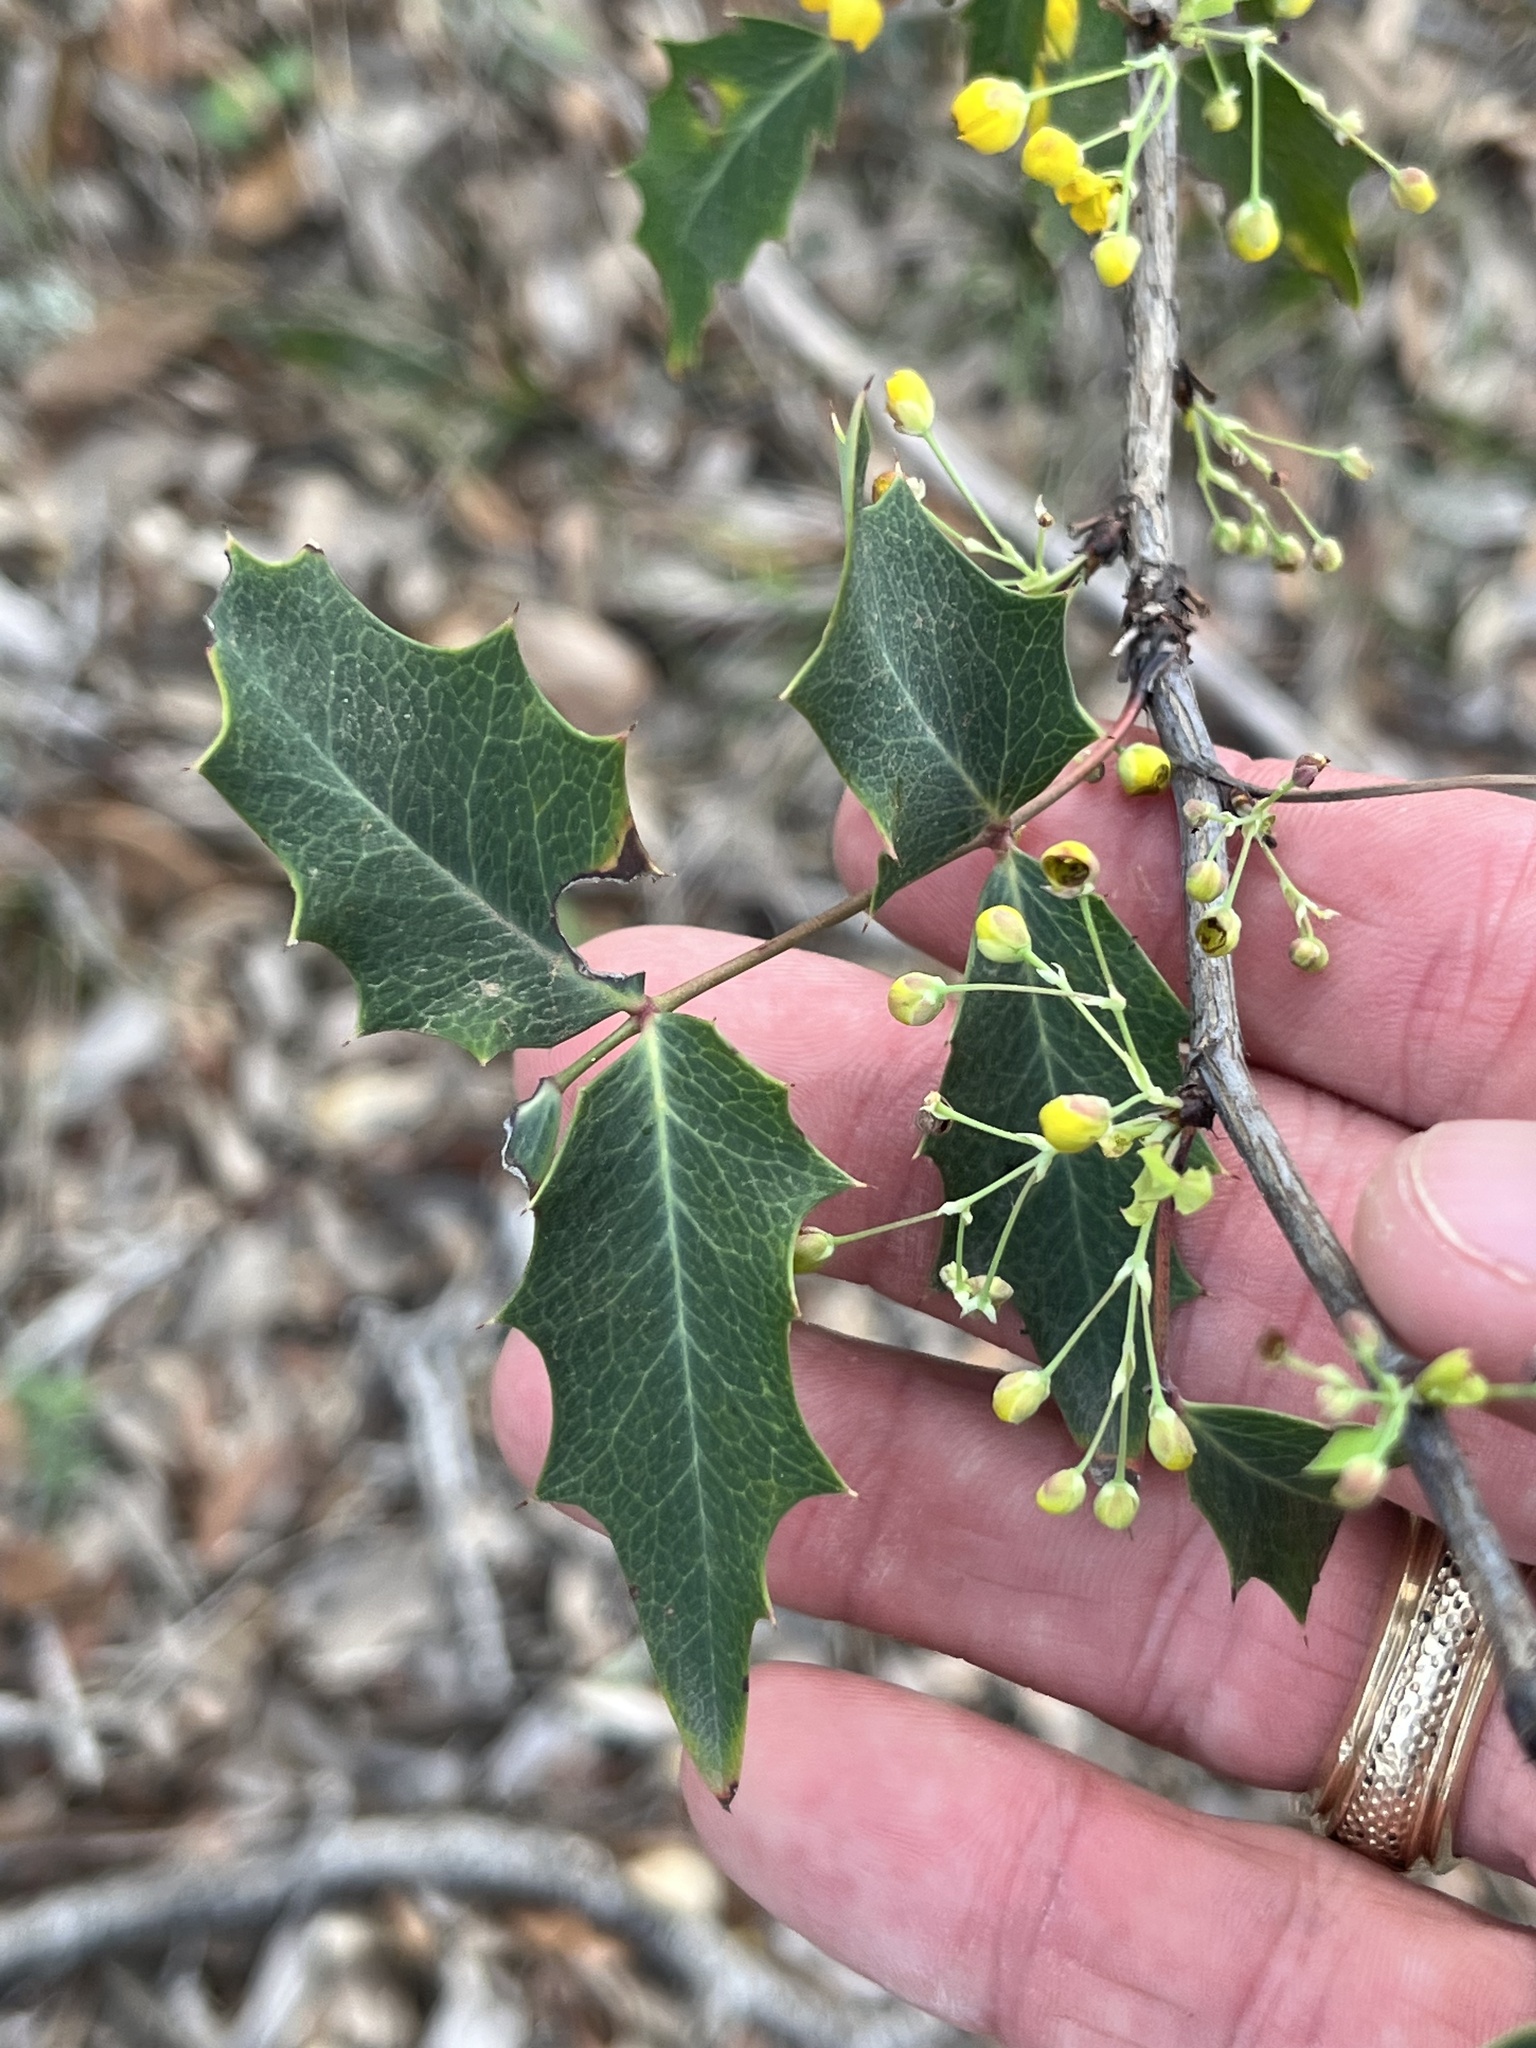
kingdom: Plantae
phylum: Tracheophyta
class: Magnoliopsida
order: Ranunculales
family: Berberidaceae
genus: Berberis
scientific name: Berberis swaseyi
